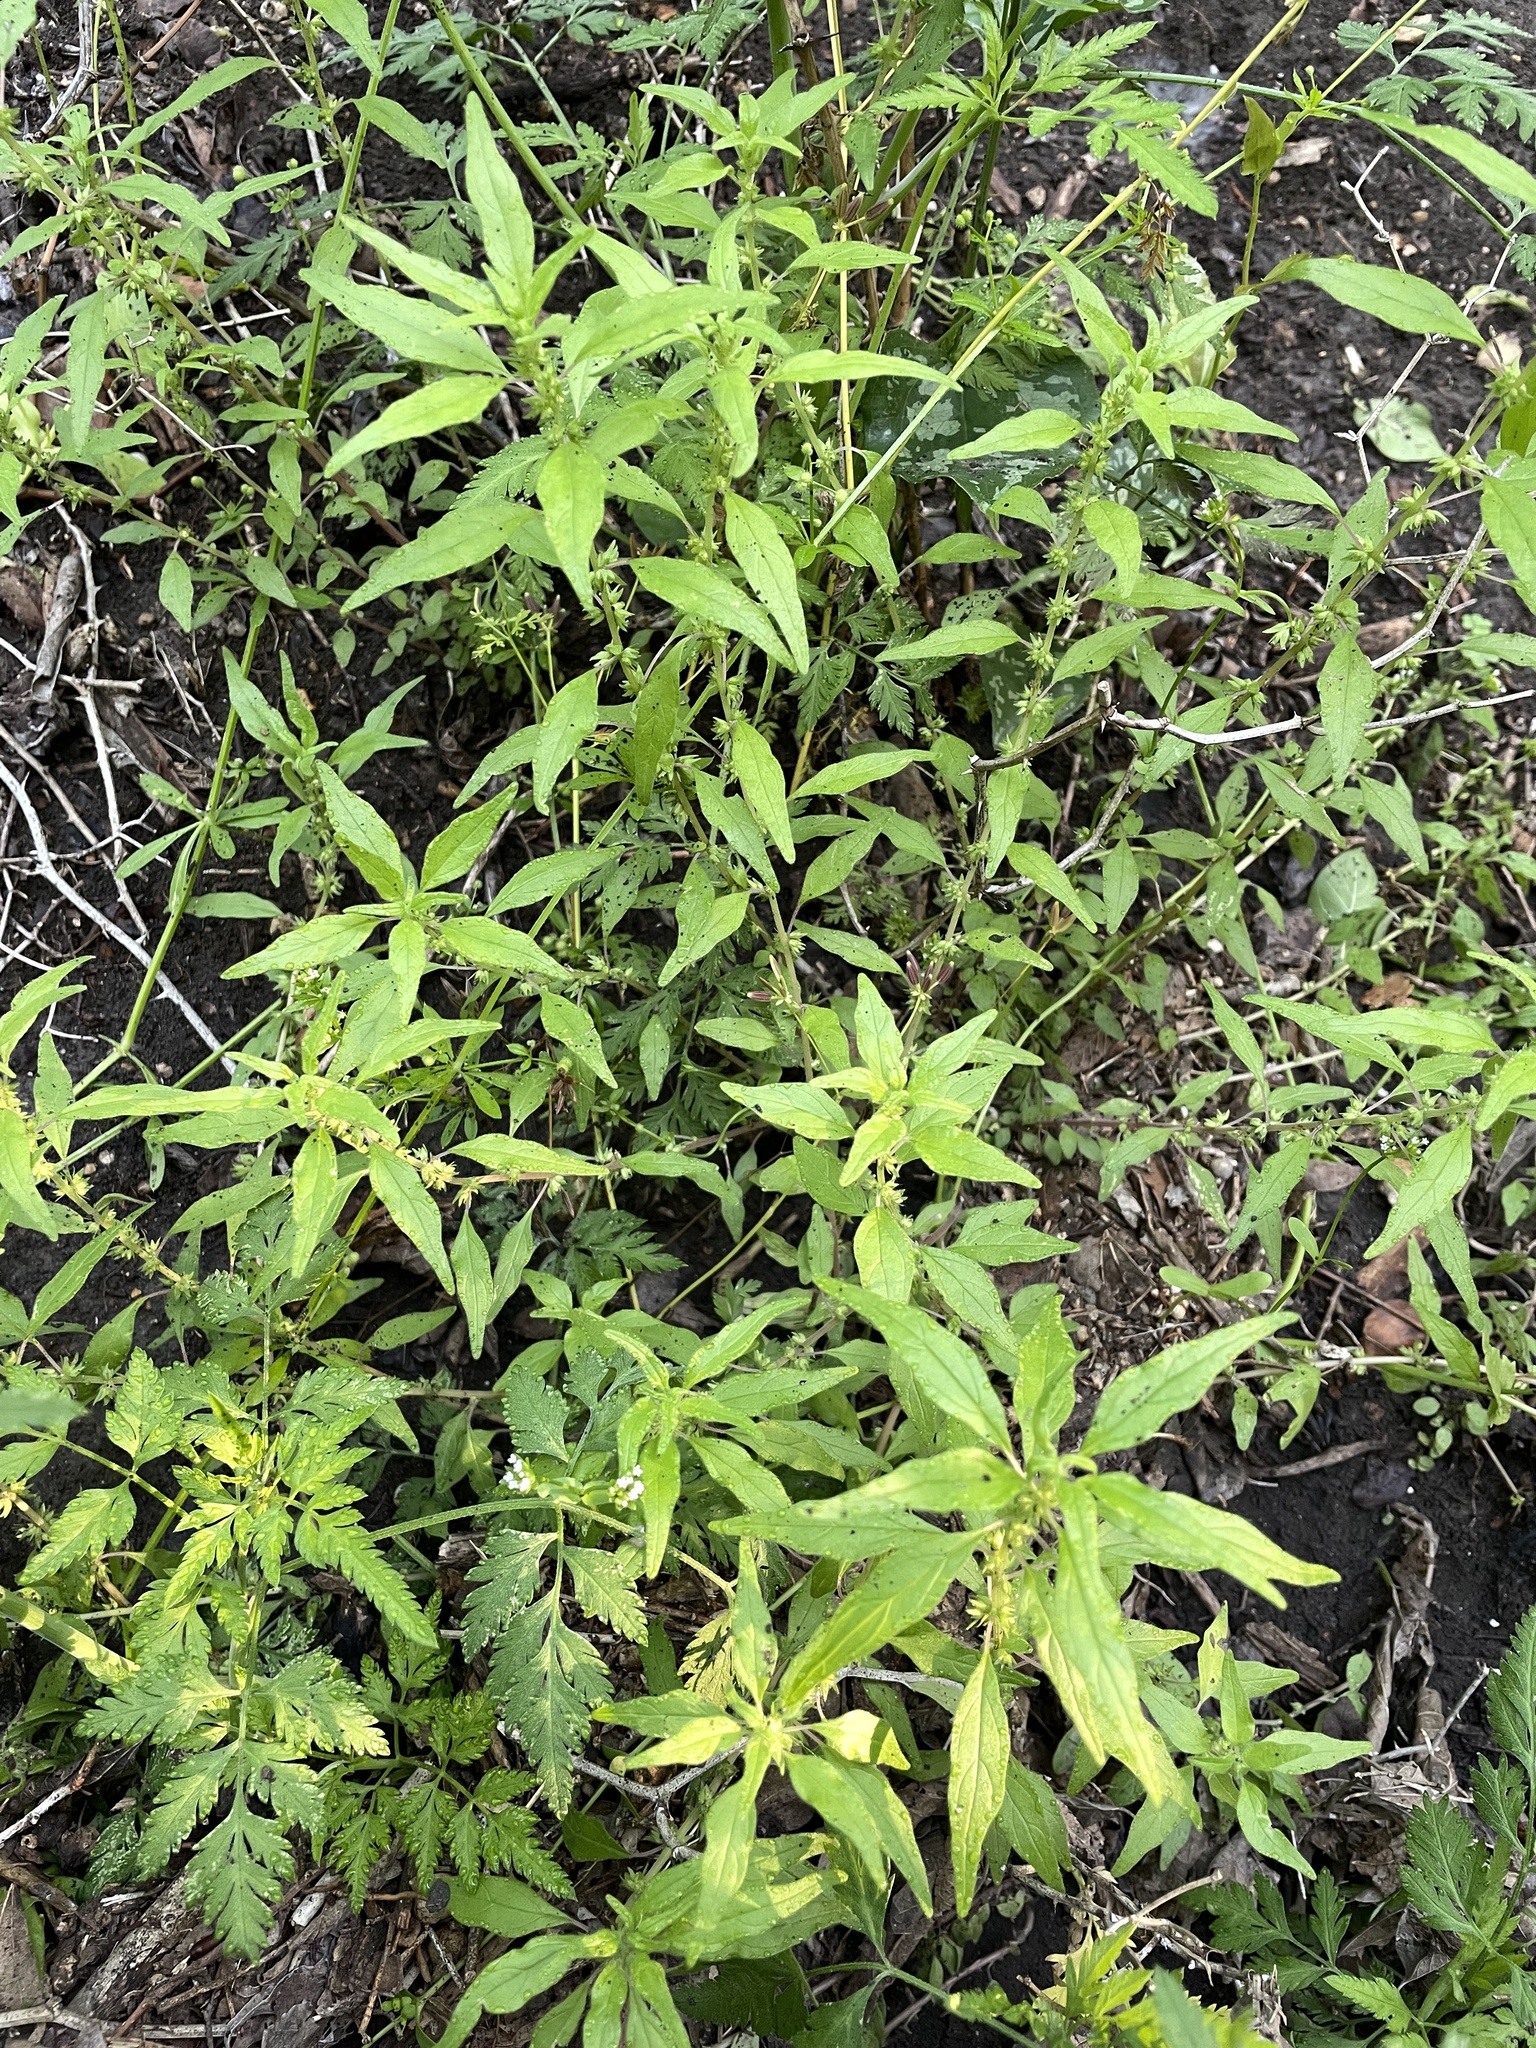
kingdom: Plantae
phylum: Tracheophyta
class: Magnoliopsida
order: Rosales
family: Urticaceae
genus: Parietaria
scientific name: Parietaria pensylvanica
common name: Pennsylvania pellitory
